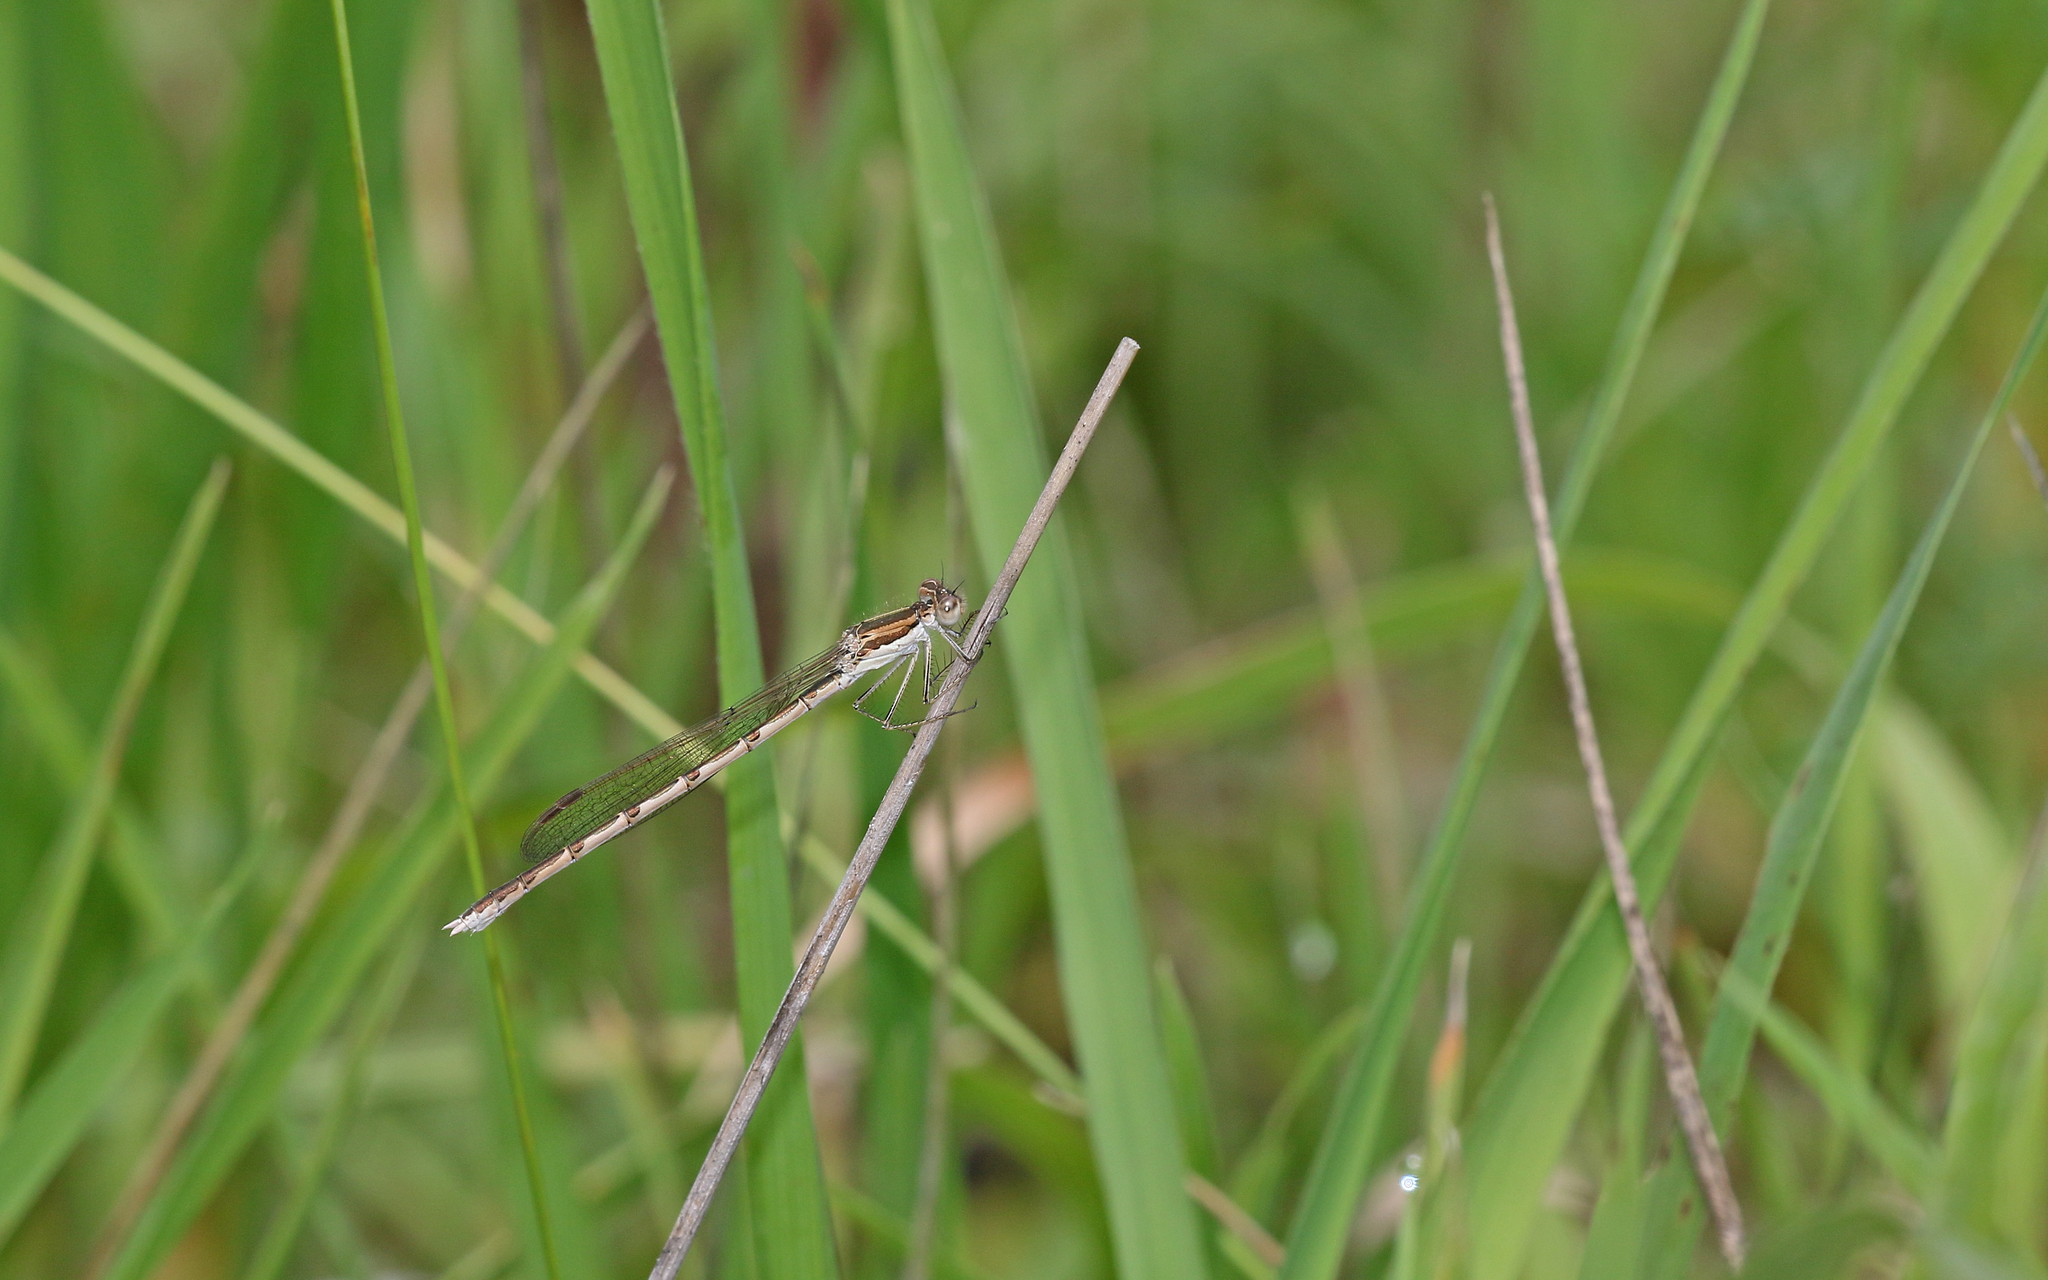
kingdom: Animalia
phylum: Arthropoda
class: Insecta
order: Odonata
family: Lestidae
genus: Sympecma
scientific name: Sympecma fusca
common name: Common winter damsel
